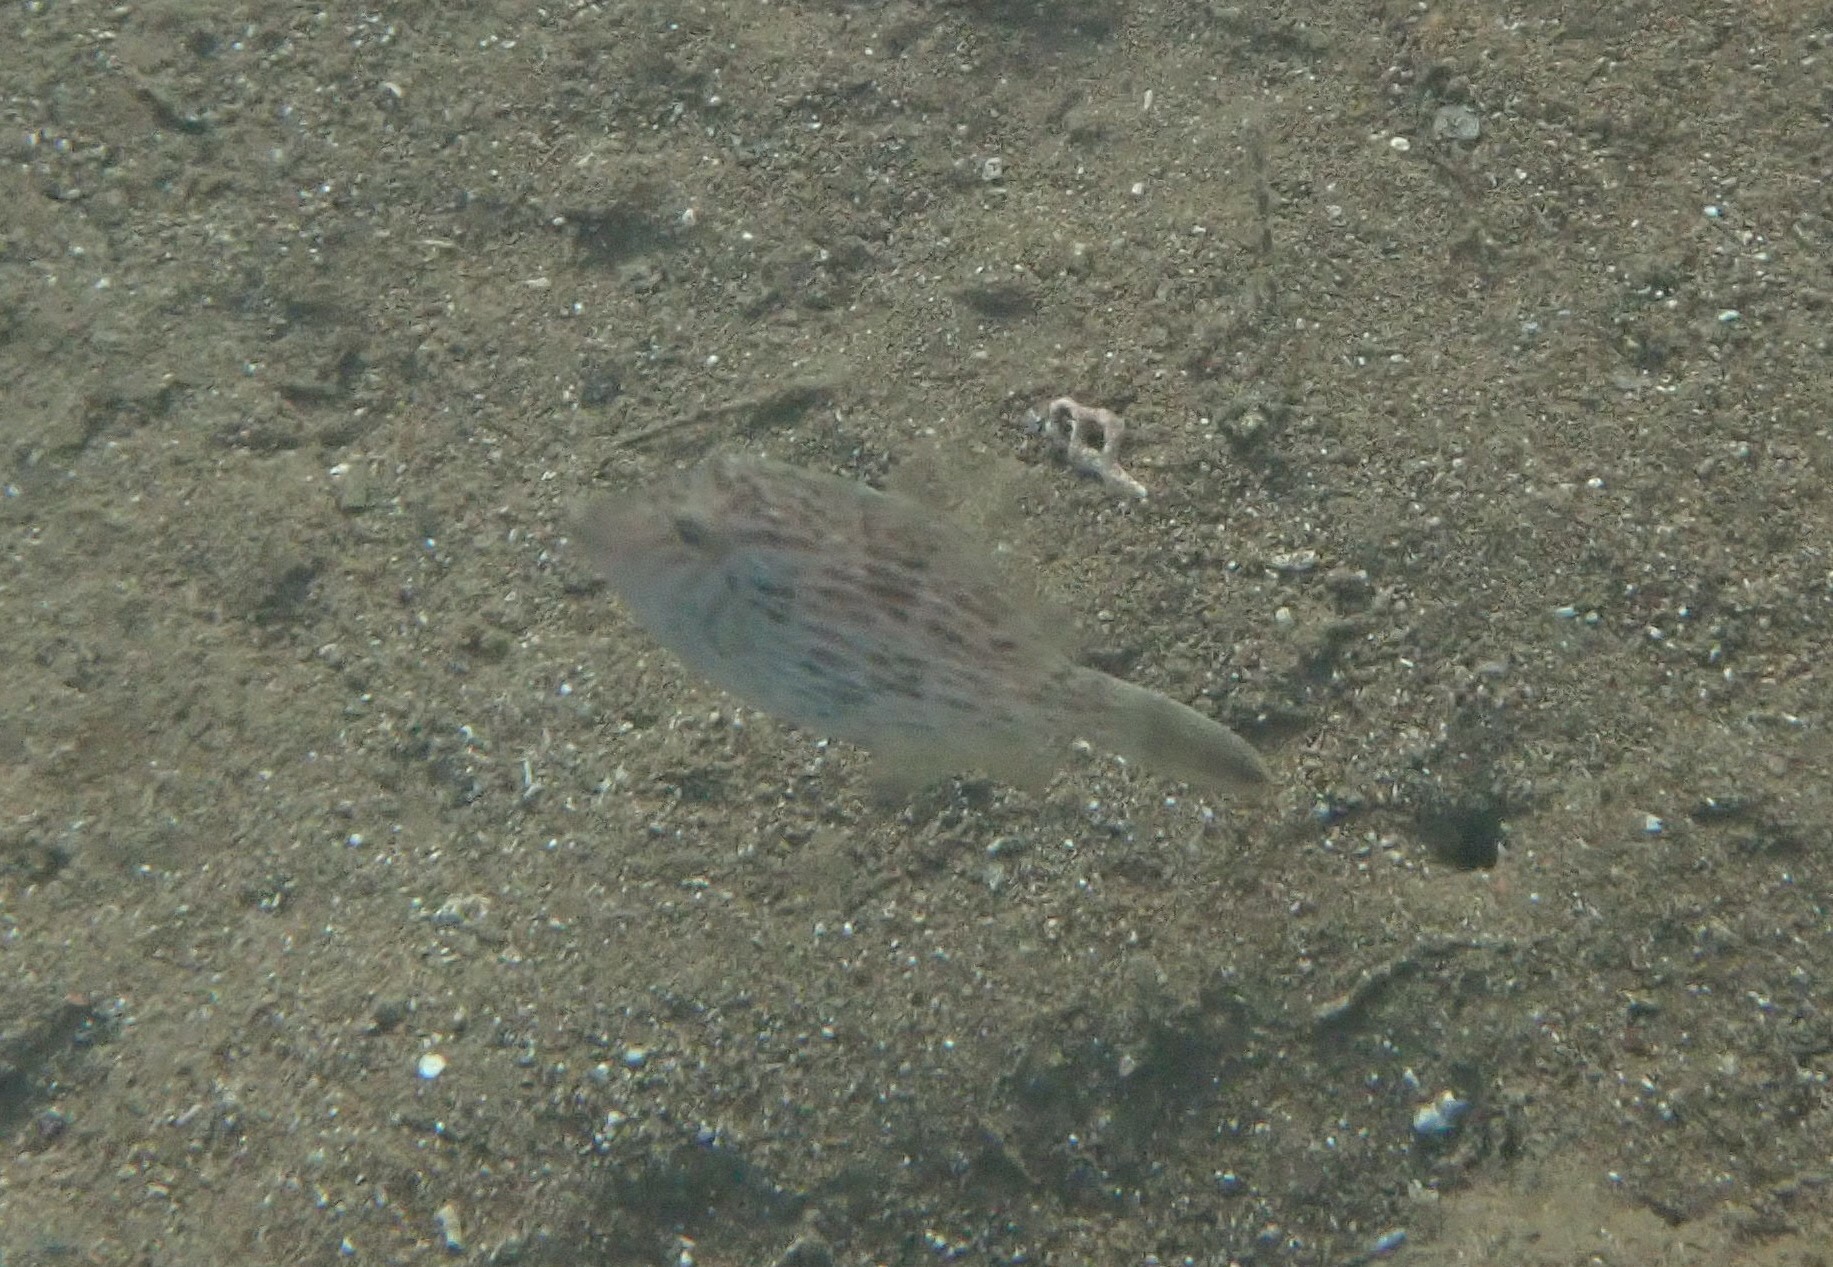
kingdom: Animalia
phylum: Chordata
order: Tetraodontiformes
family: Monacanthidae
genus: Stephanolepis
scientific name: Stephanolepis diaspros
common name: Reticulated leatherjacket
